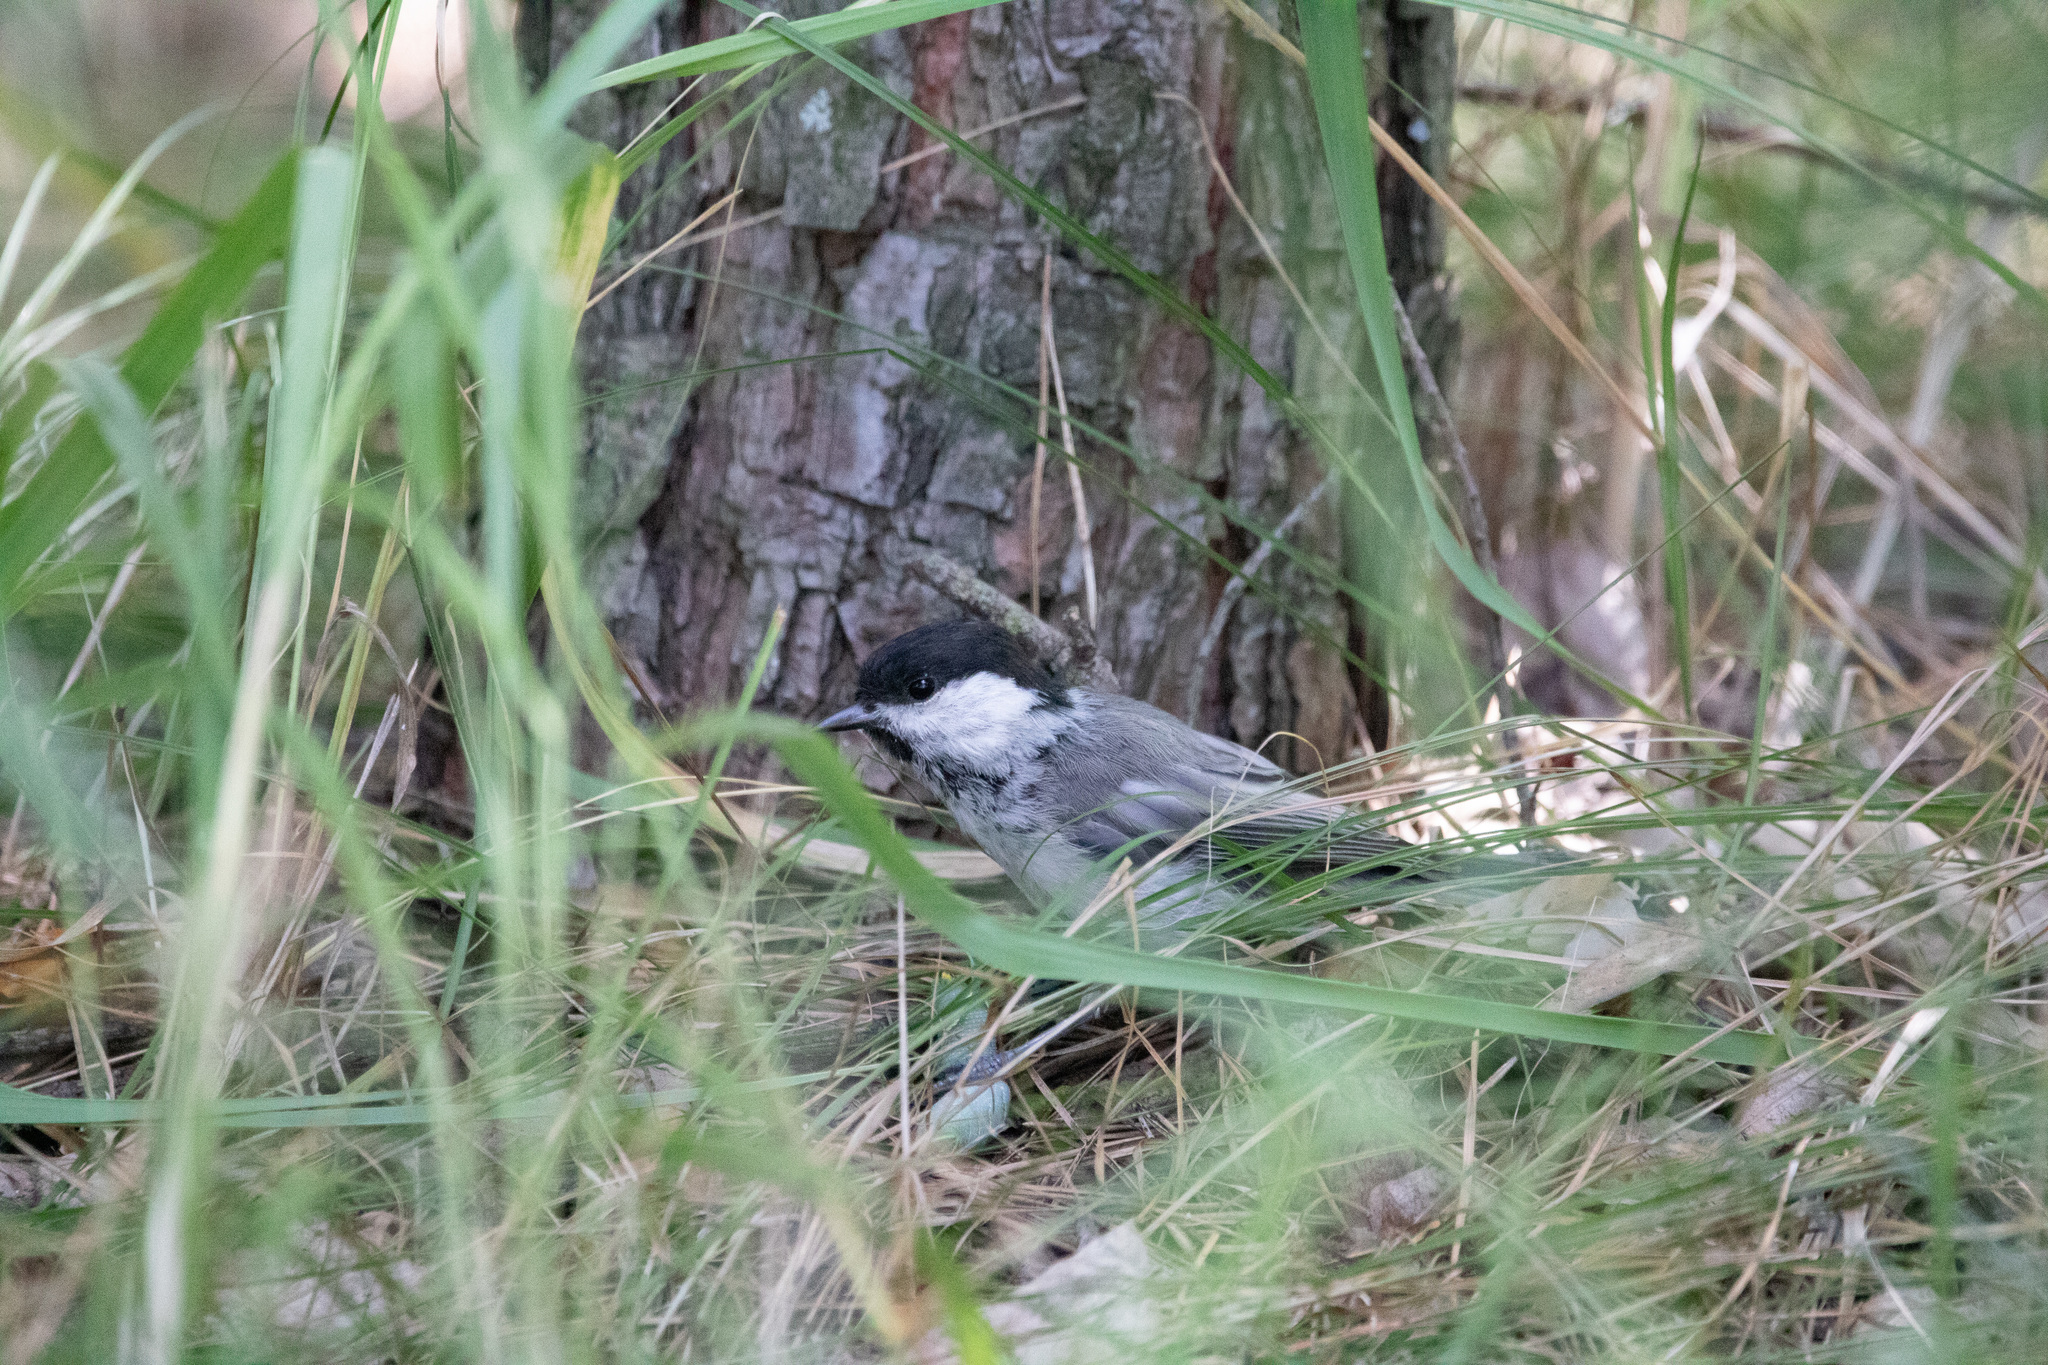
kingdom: Animalia
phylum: Chordata
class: Aves
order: Passeriformes
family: Paridae
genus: Poecile
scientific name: Poecile montanus
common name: Willow tit
